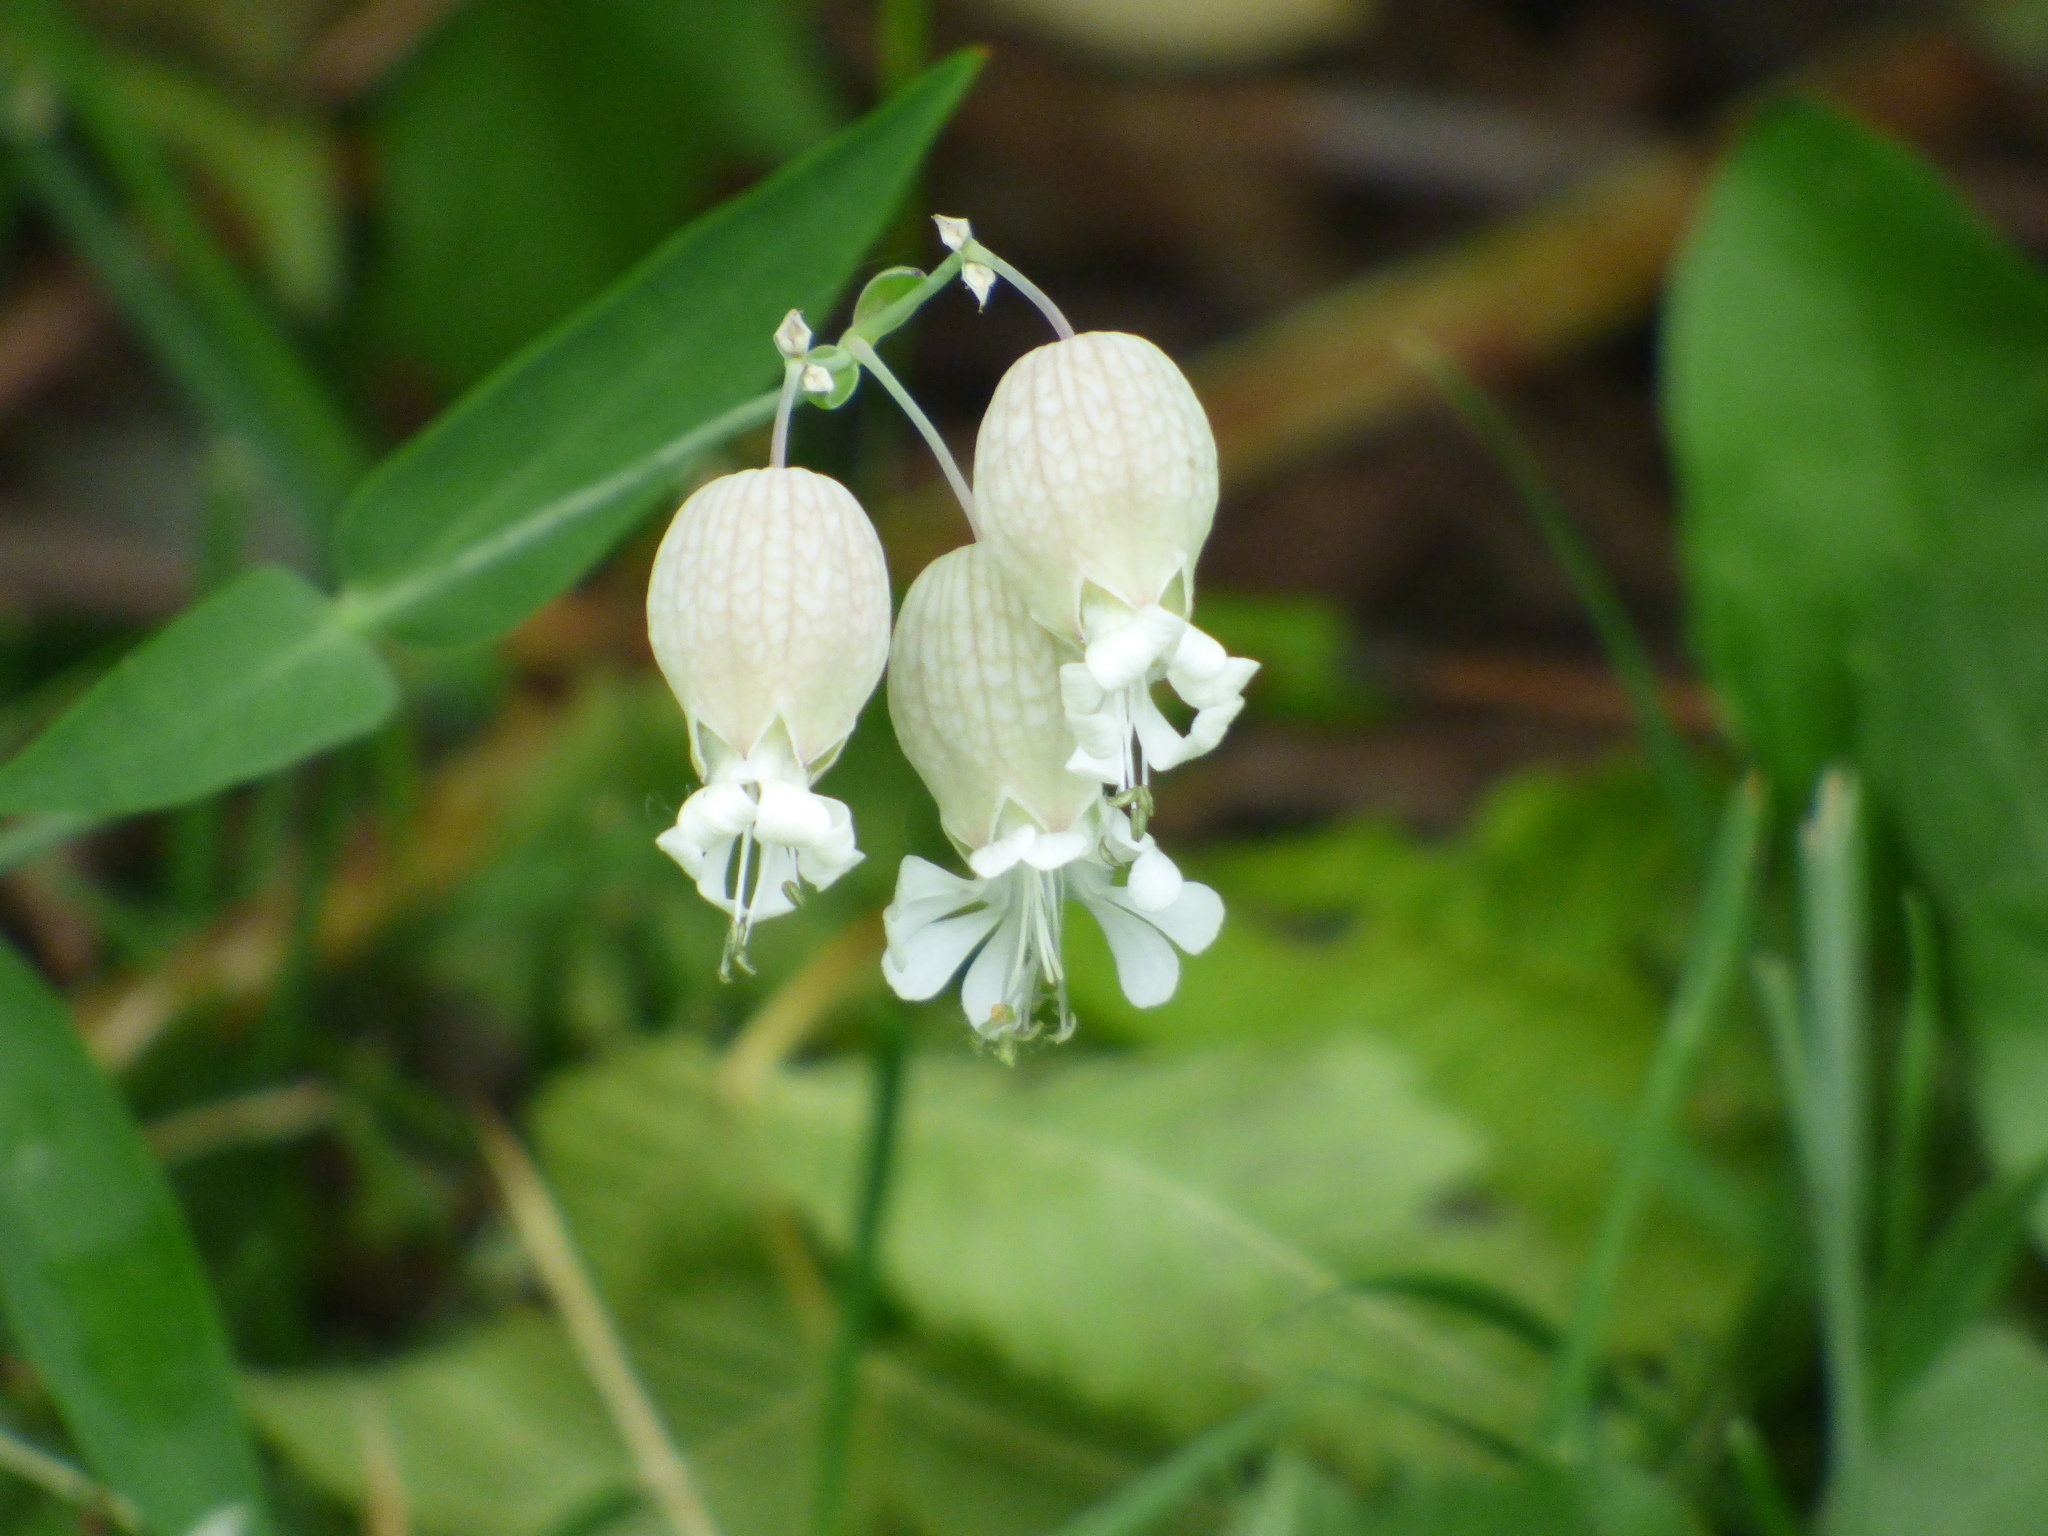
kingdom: Plantae
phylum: Tracheophyta
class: Magnoliopsida
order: Caryophyllales
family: Caryophyllaceae
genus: Silene
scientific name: Silene vulgaris
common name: Bladder campion
